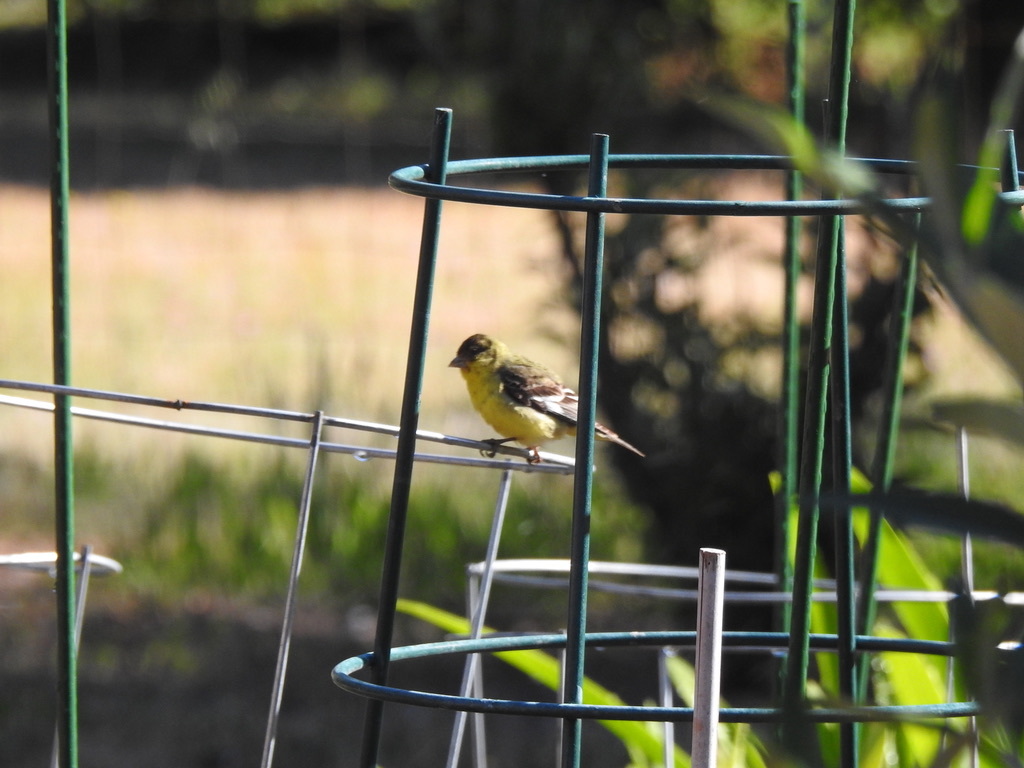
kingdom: Animalia
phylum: Chordata
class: Aves
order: Passeriformes
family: Fringillidae
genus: Spinus
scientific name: Spinus psaltria
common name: Lesser goldfinch
